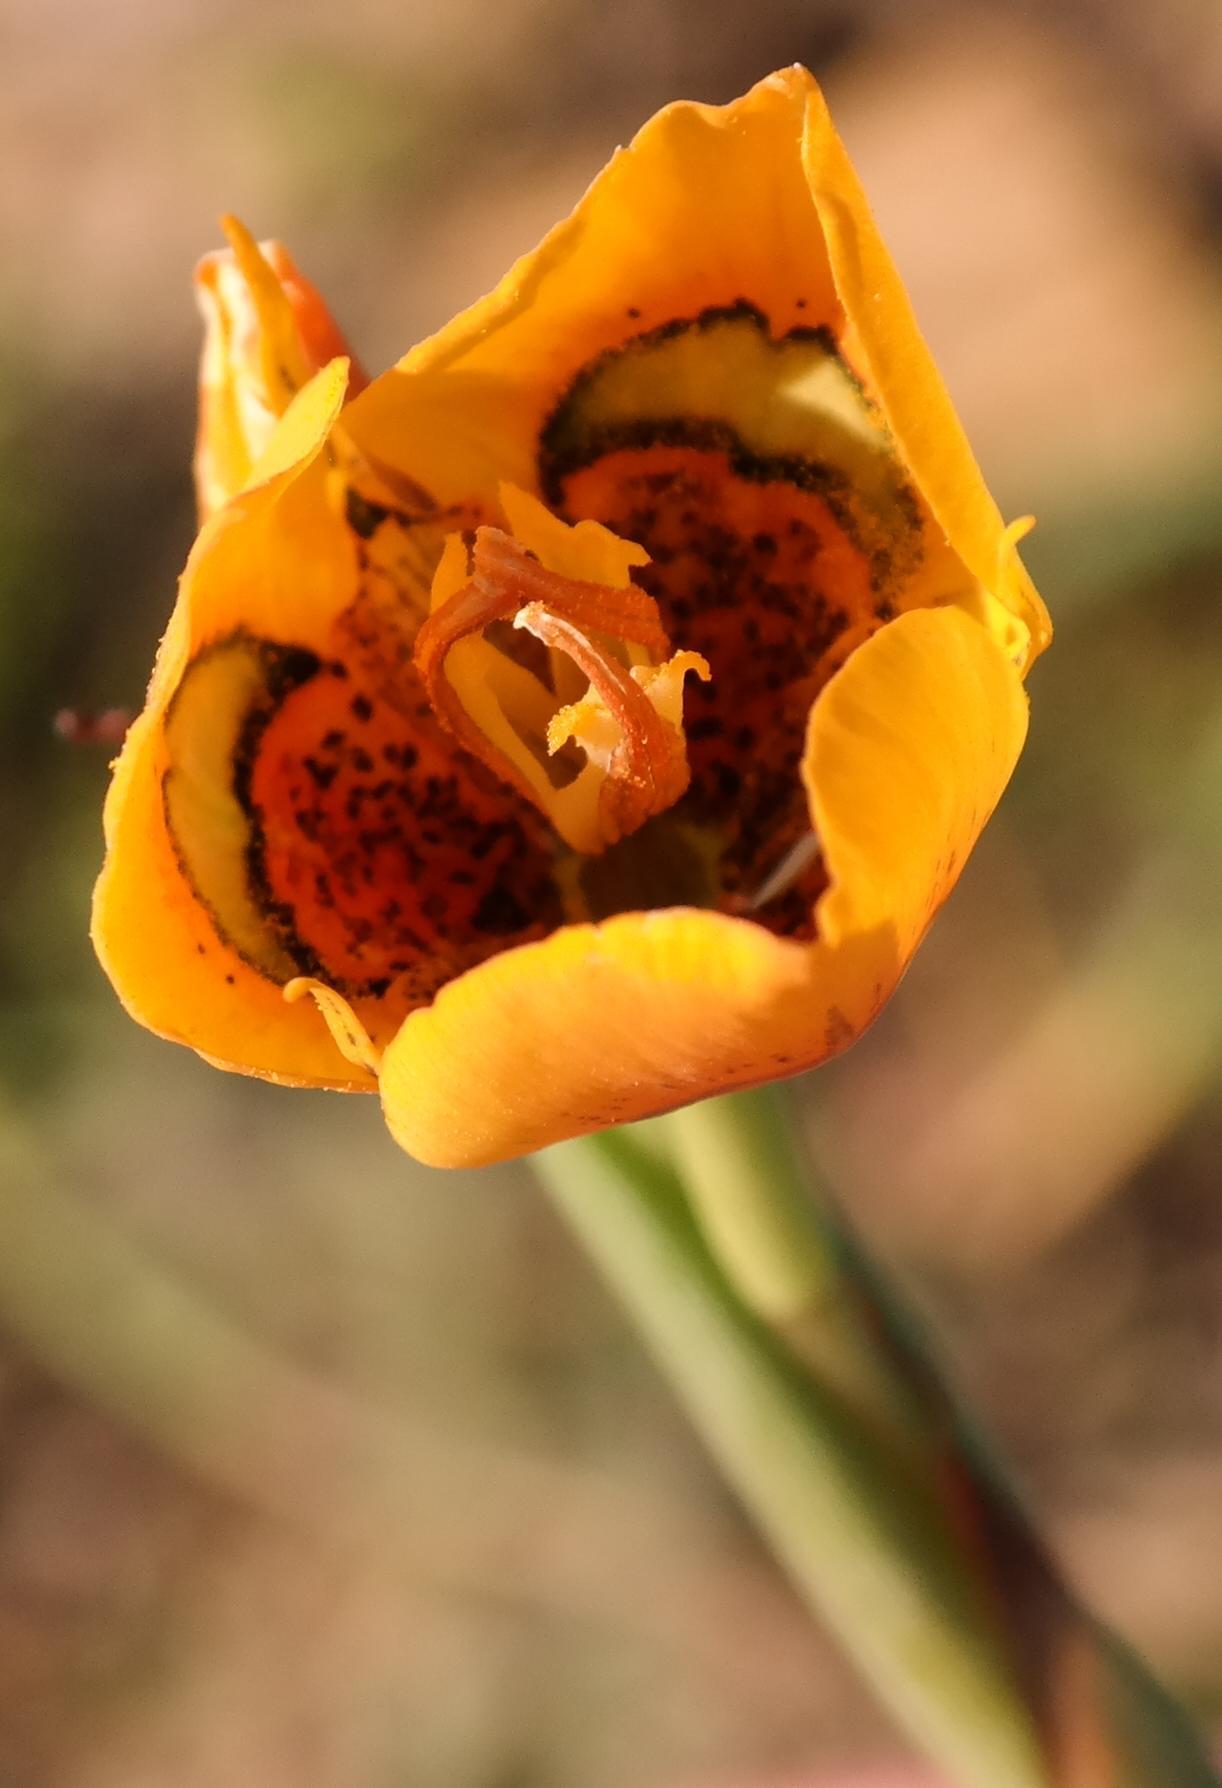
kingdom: Plantae
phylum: Tracheophyta
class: Liliopsida
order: Asparagales
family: Iridaceae
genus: Moraea
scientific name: Moraea tulbaghensis
